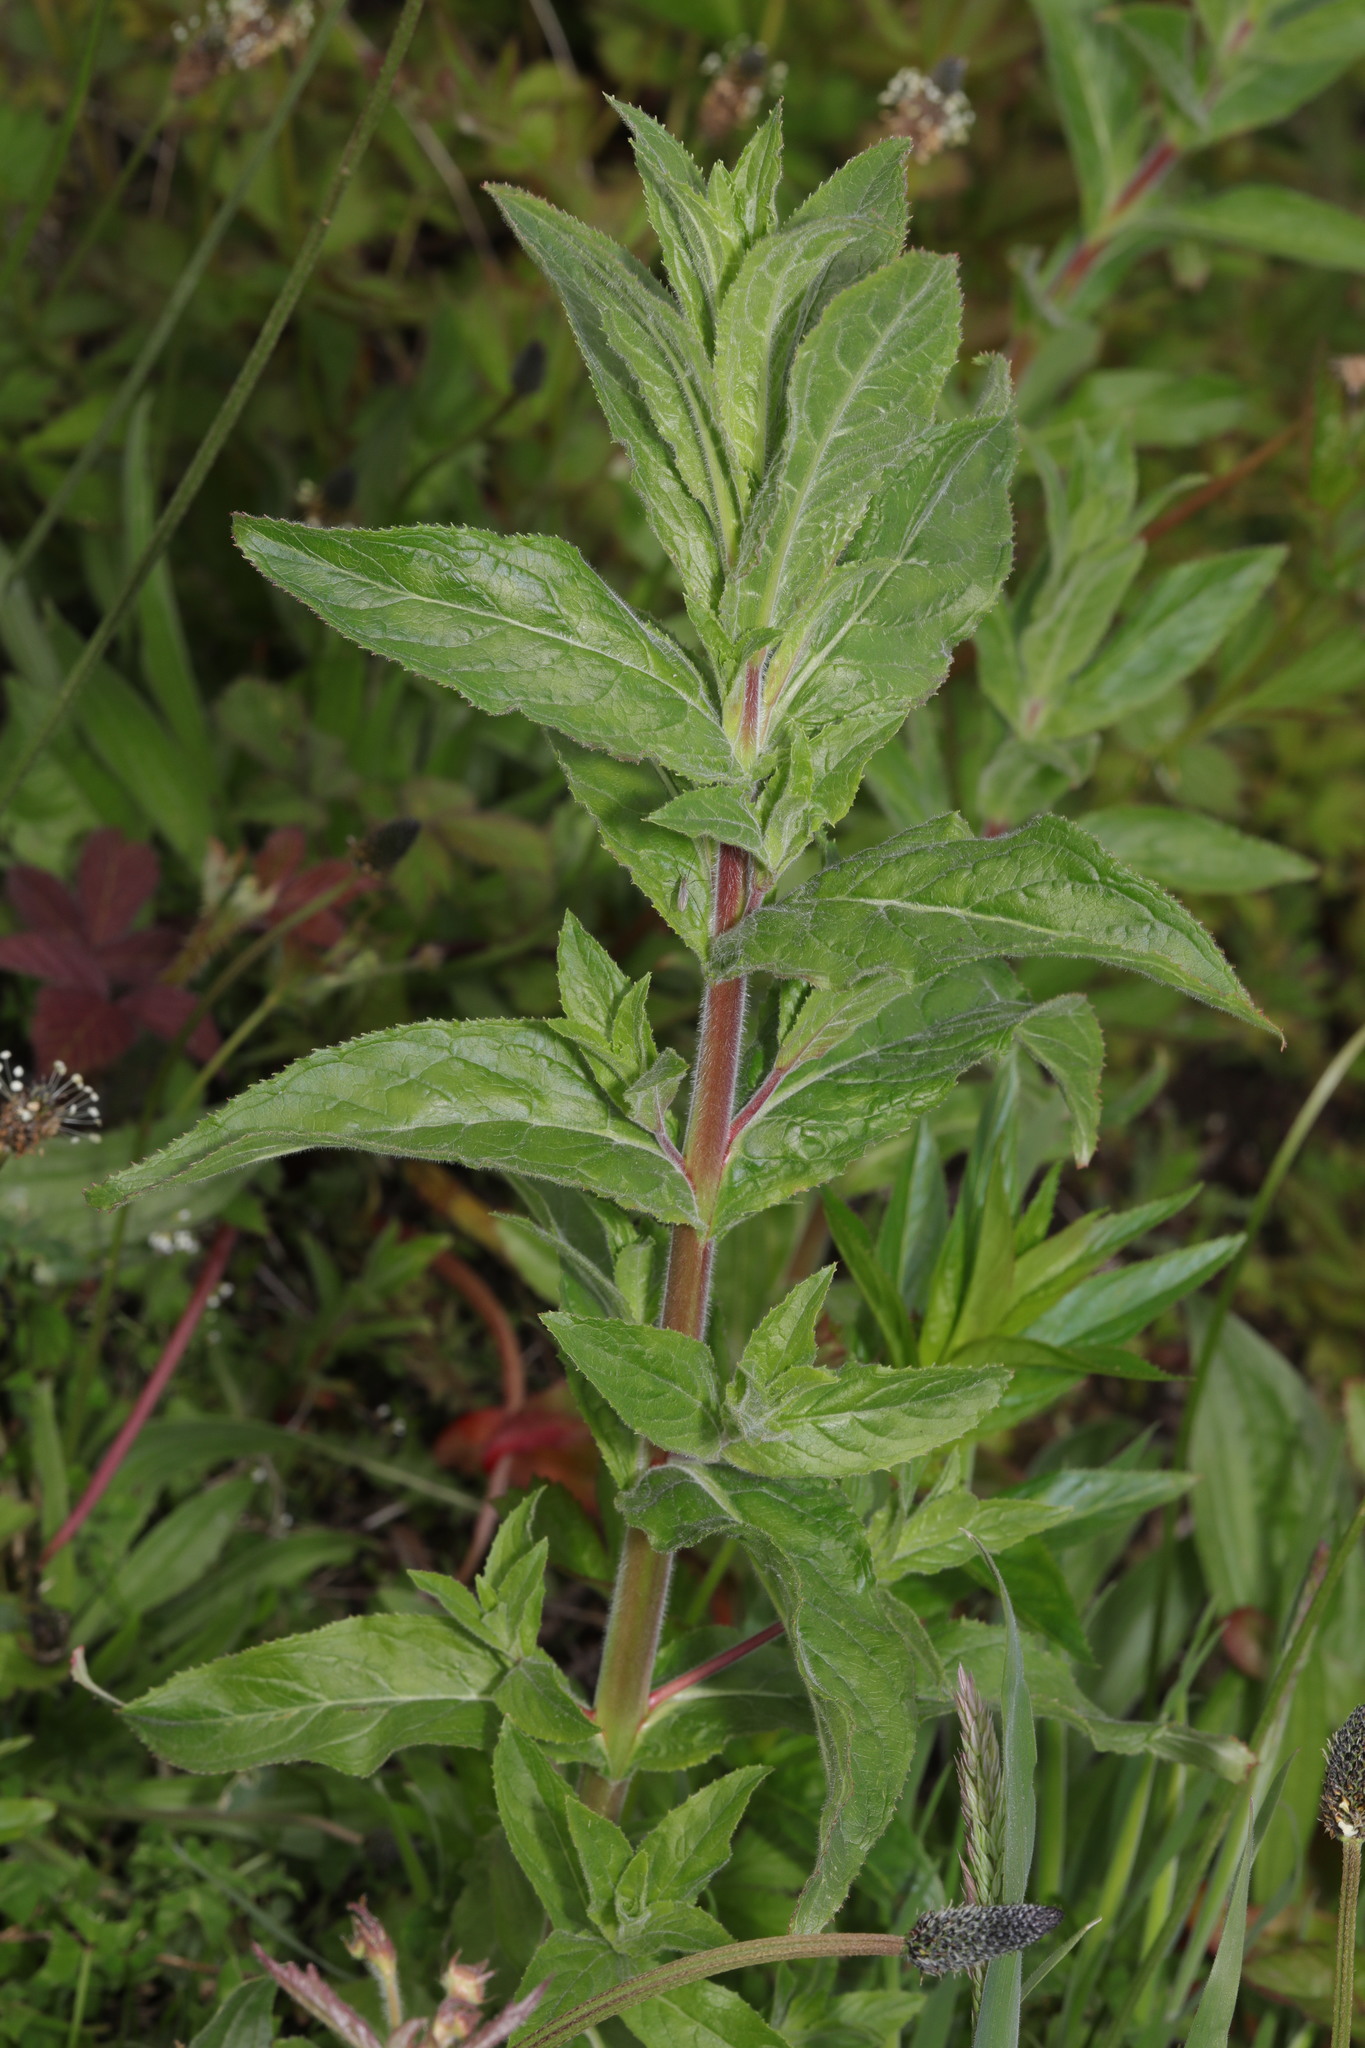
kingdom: Plantae
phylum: Tracheophyta
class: Magnoliopsida
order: Myrtales
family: Onagraceae
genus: Epilobium
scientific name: Epilobium hirsutum
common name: Great willowherb
